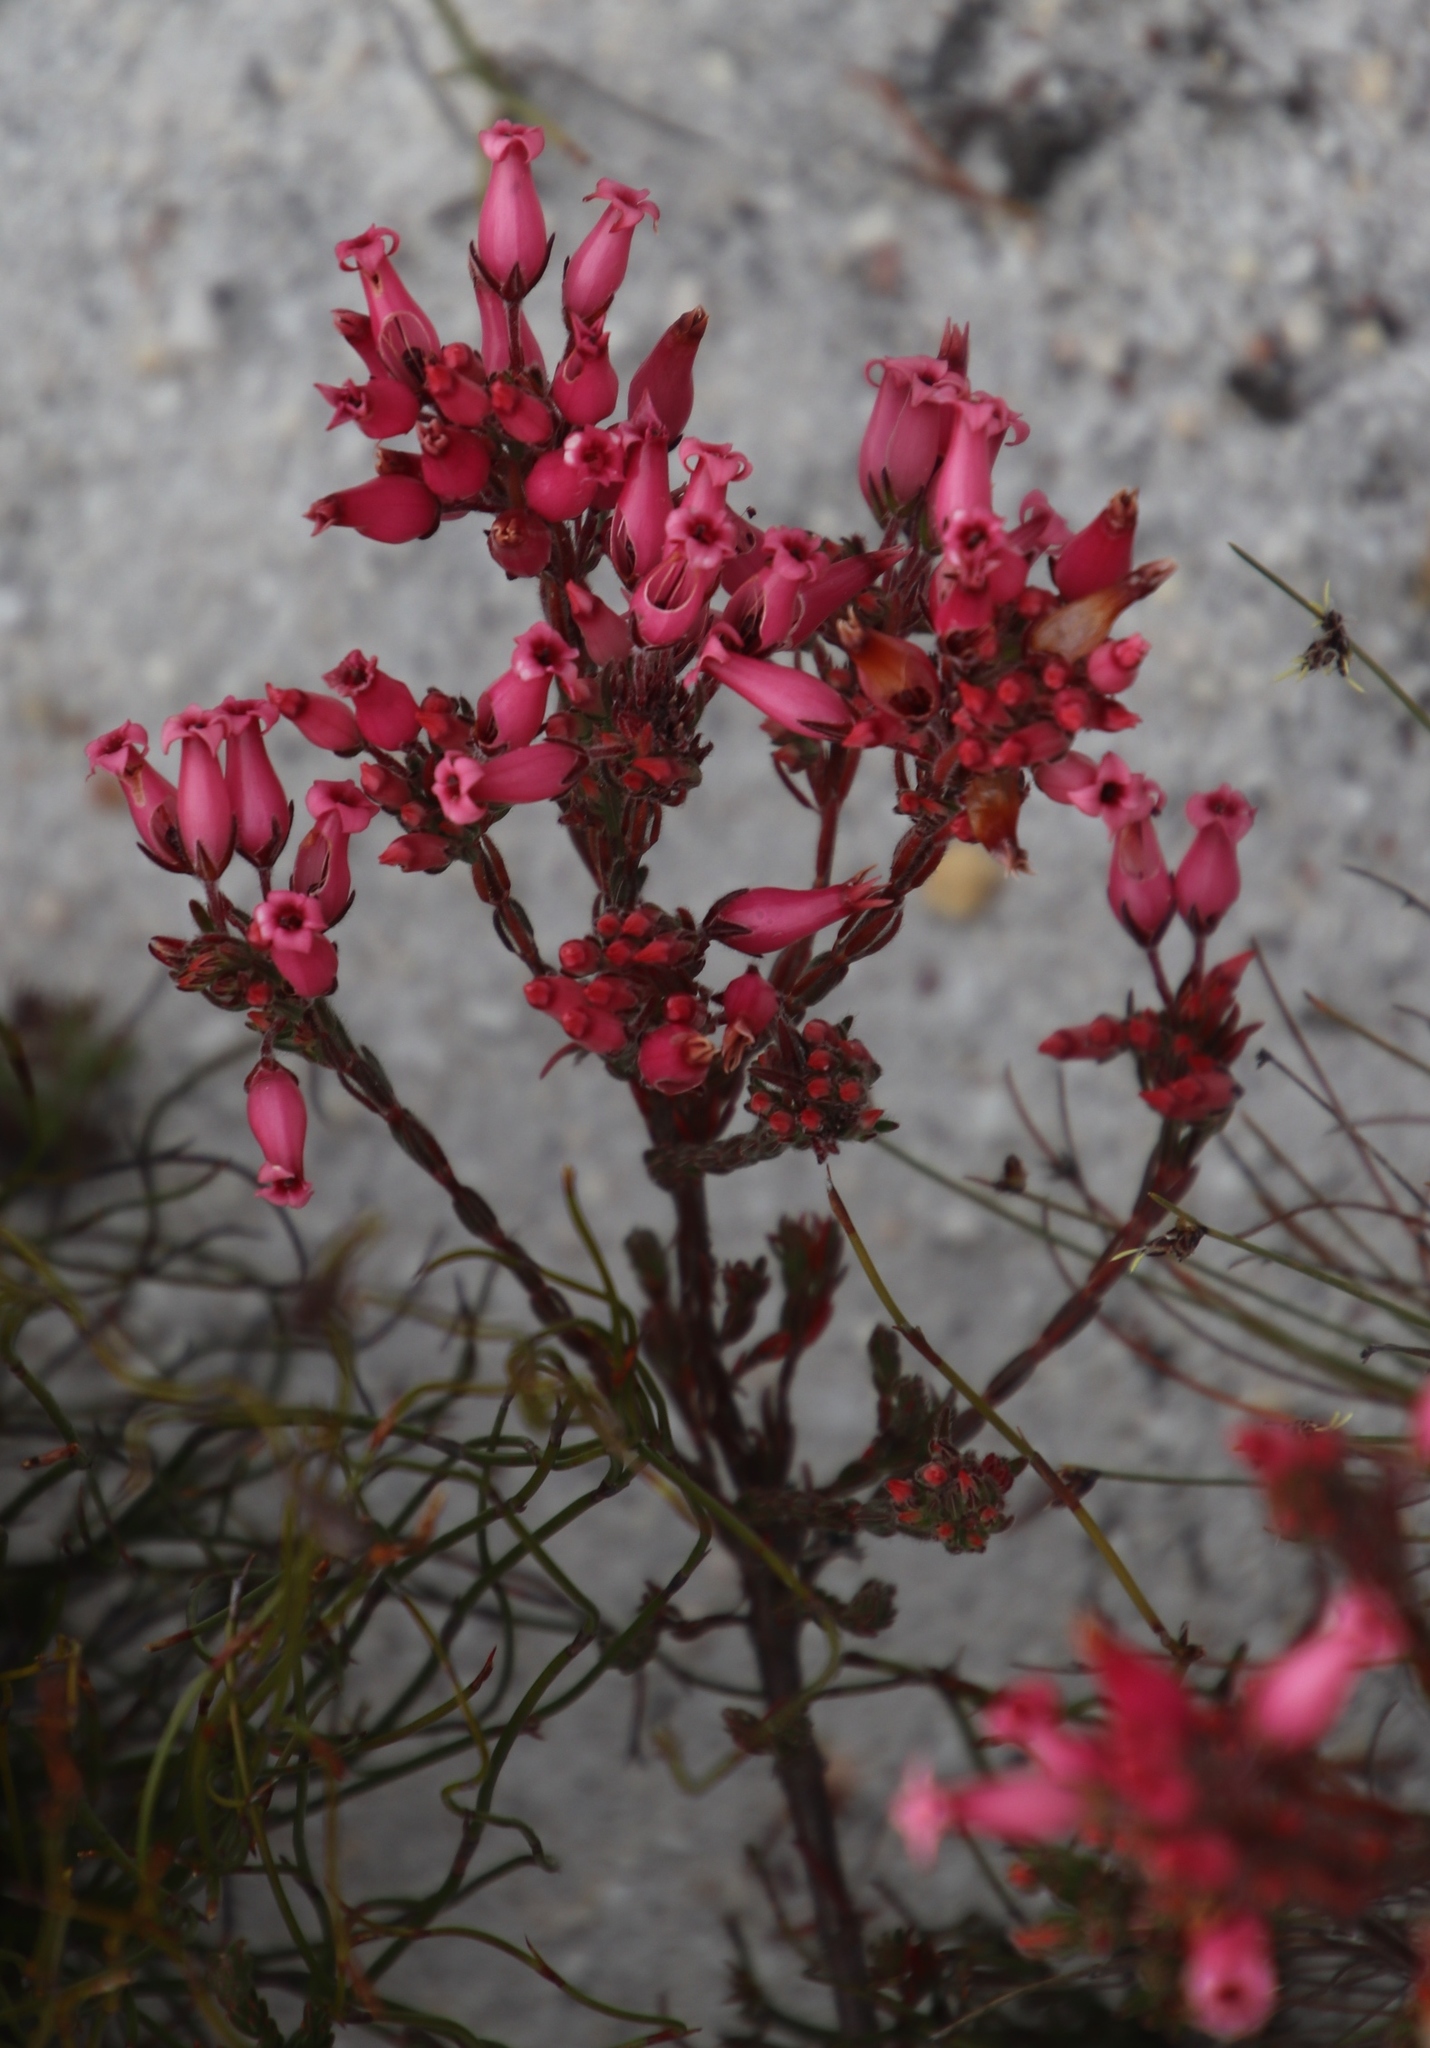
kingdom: Plantae
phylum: Tracheophyta
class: Magnoliopsida
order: Ericales
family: Ericaceae
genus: Erica
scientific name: Erica
